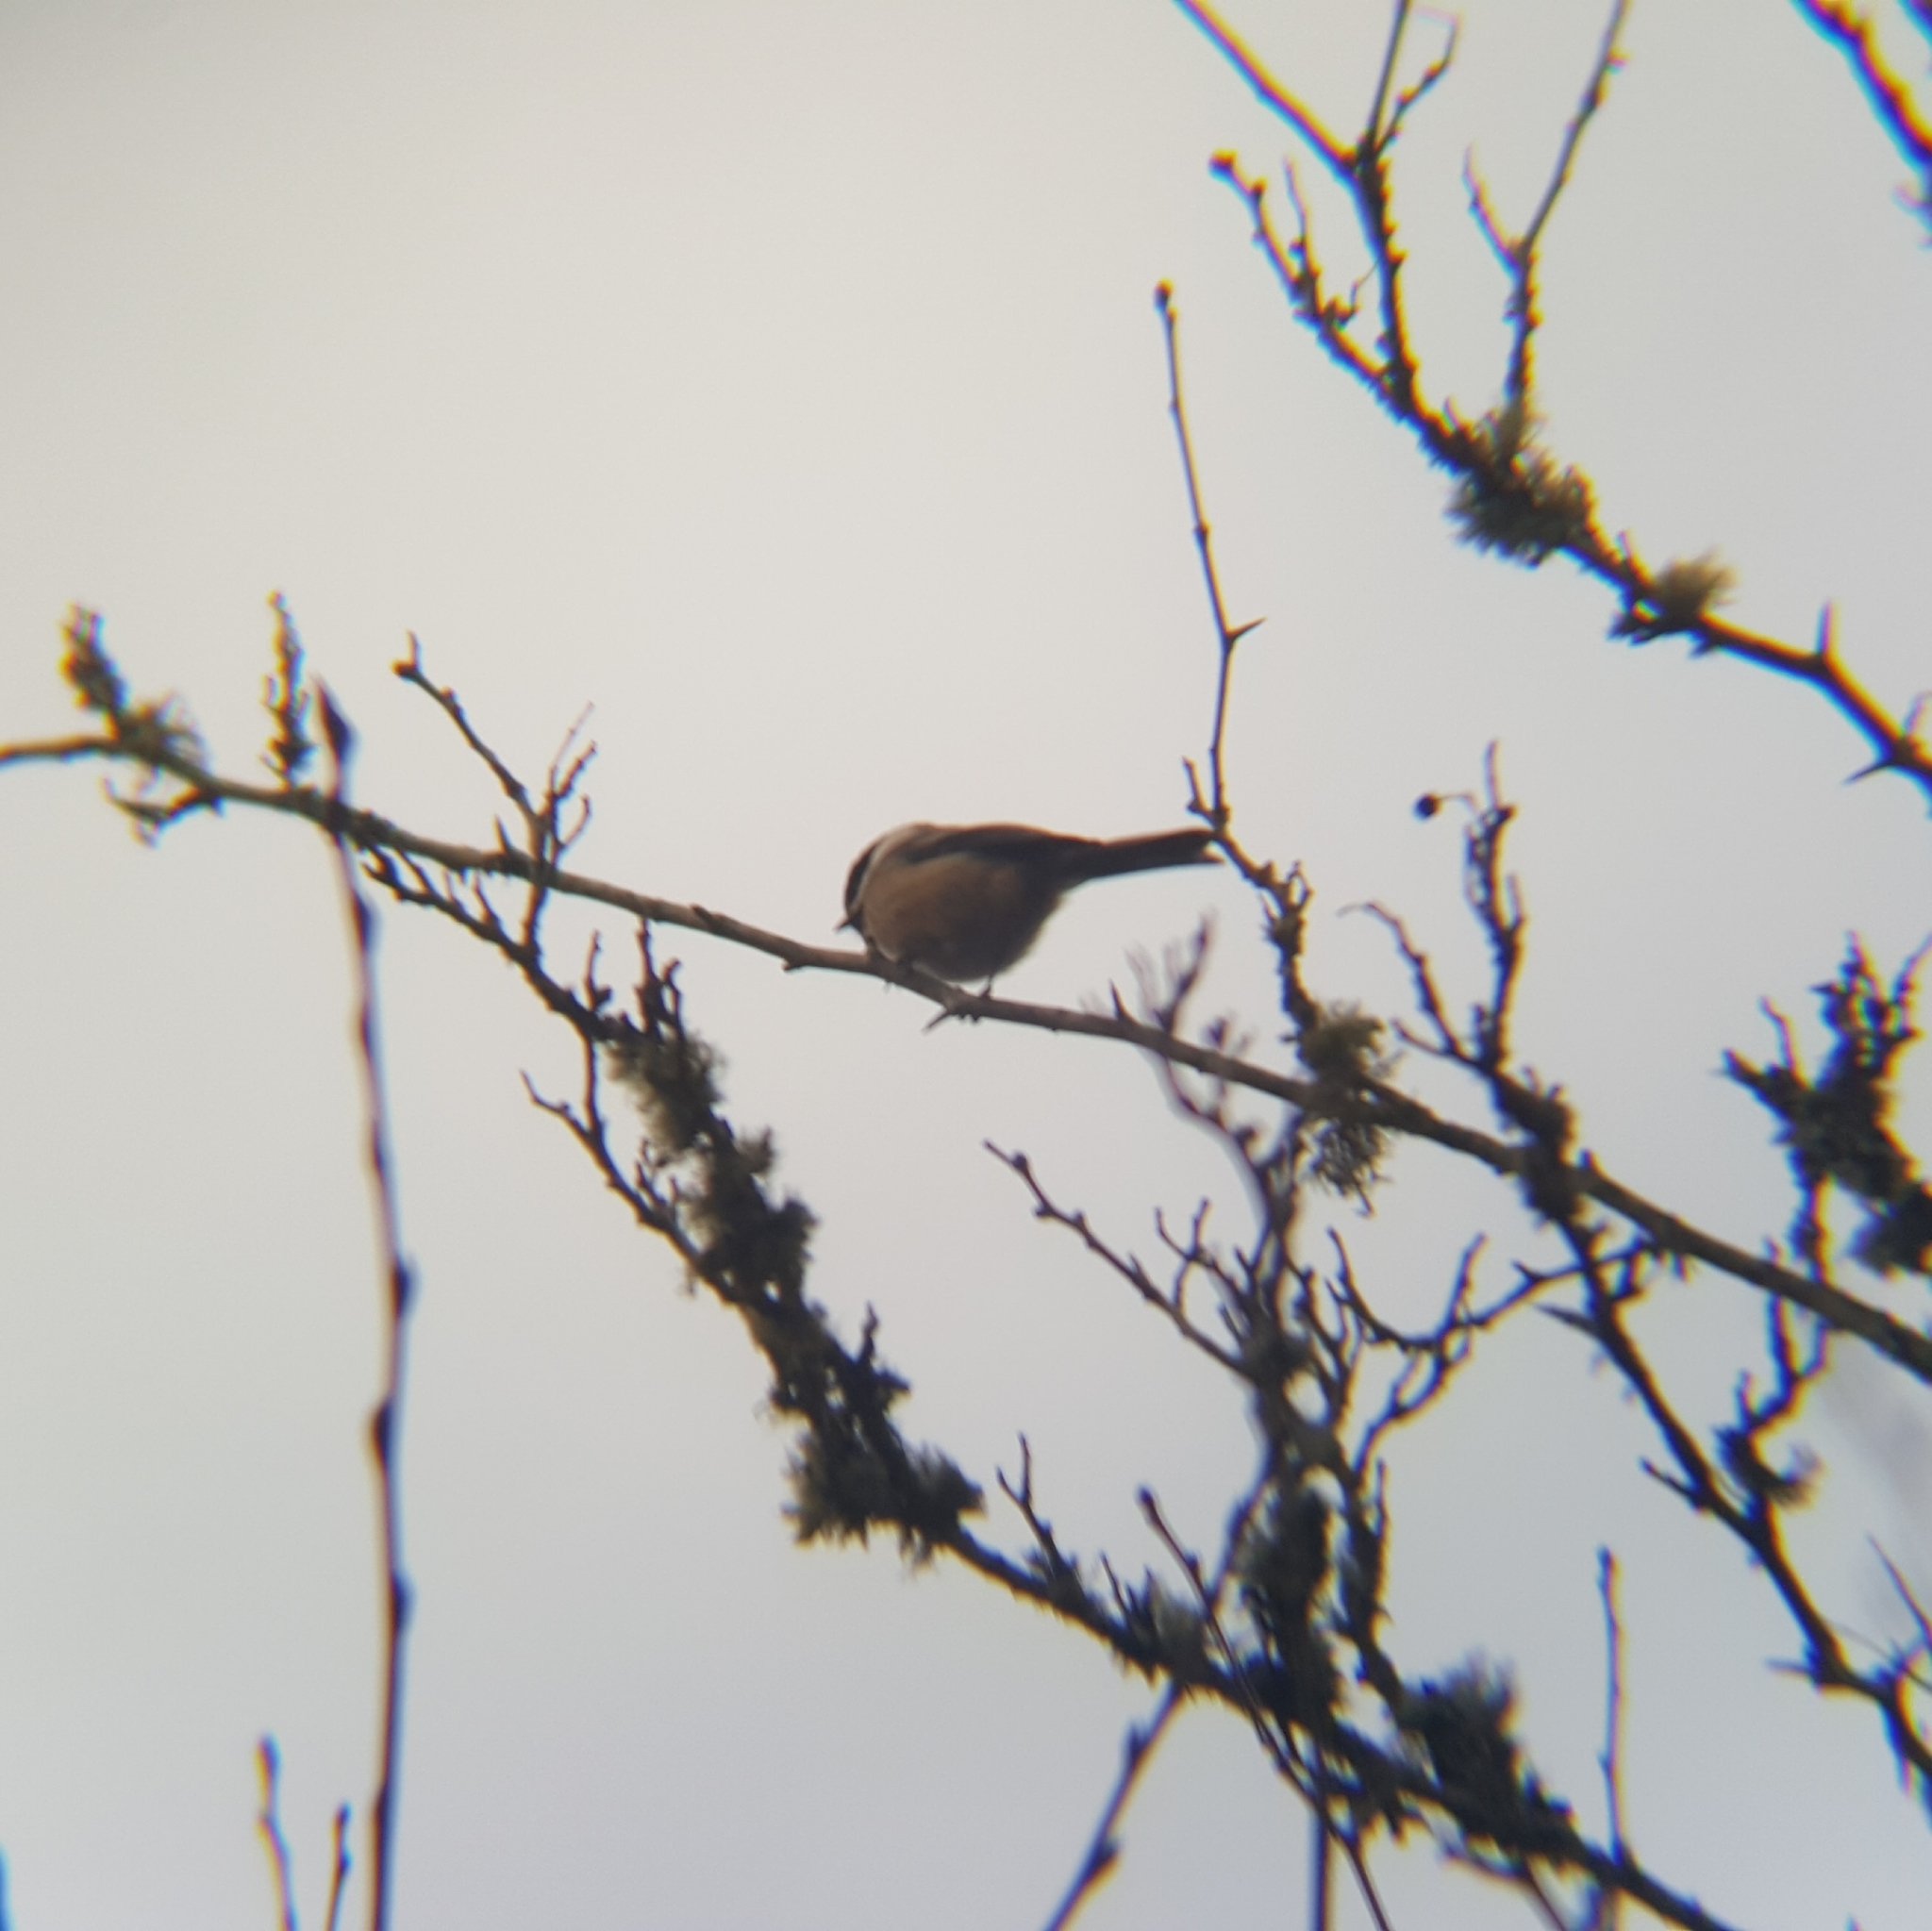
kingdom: Animalia
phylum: Chordata
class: Aves
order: Passeriformes
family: Paridae
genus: Poecile
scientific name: Poecile atricapillus
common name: Black-capped chickadee
